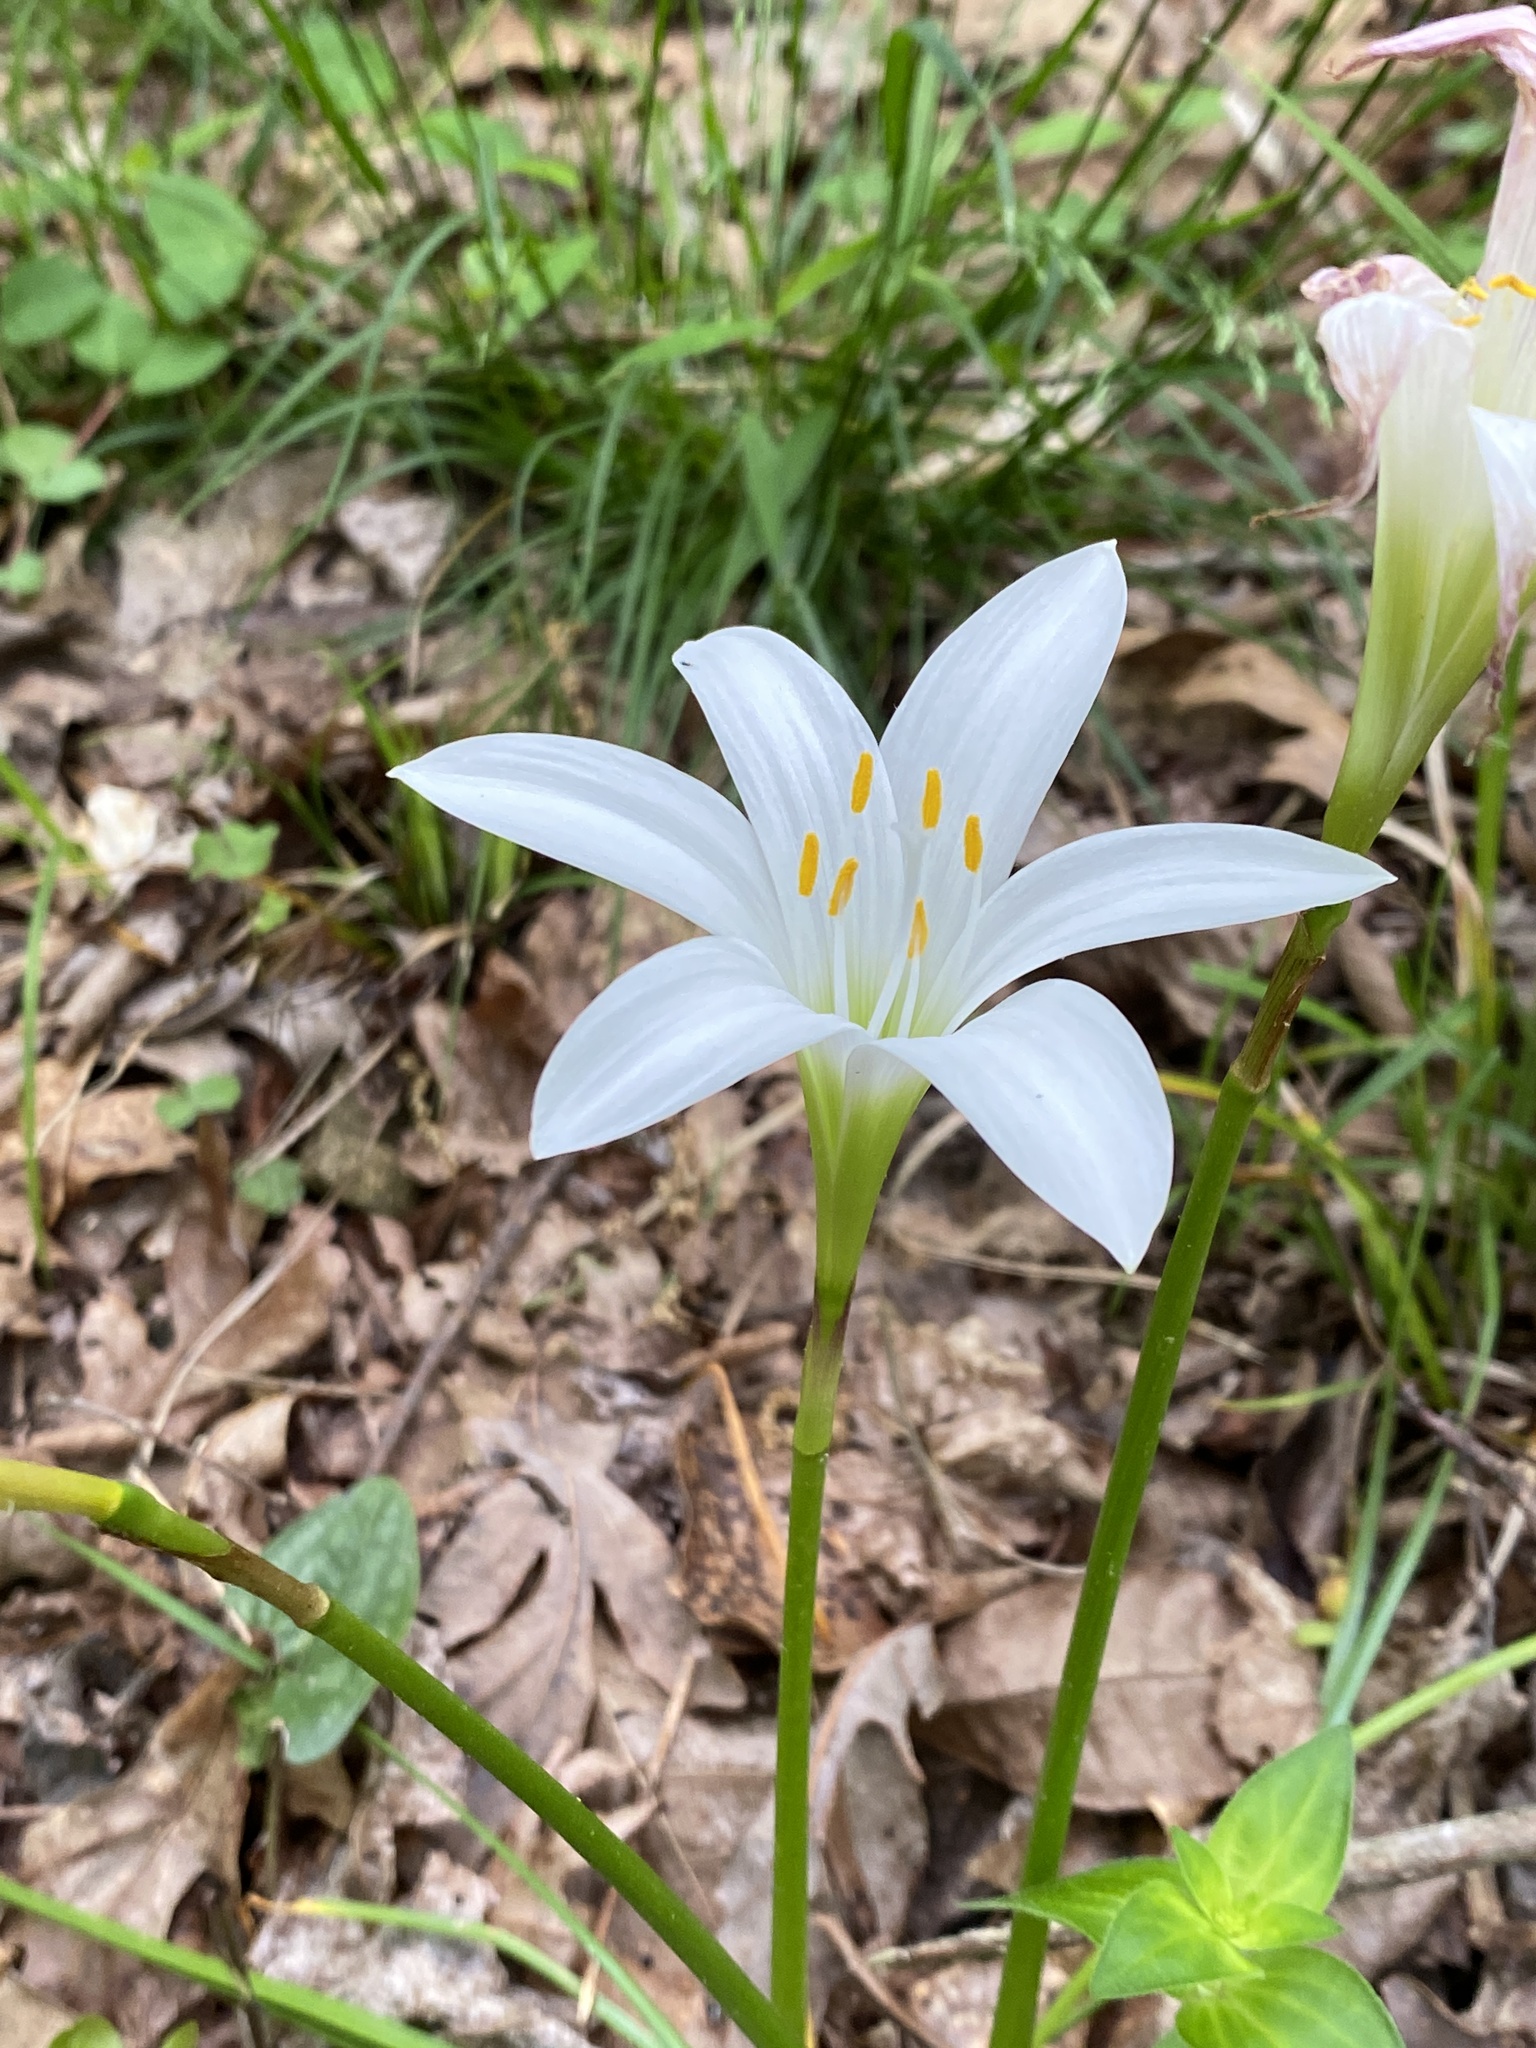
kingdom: Plantae
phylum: Tracheophyta
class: Liliopsida
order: Asparagales
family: Amaryllidaceae
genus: Zephyranthes
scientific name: Zephyranthes atamasco
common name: Atamasco lily
